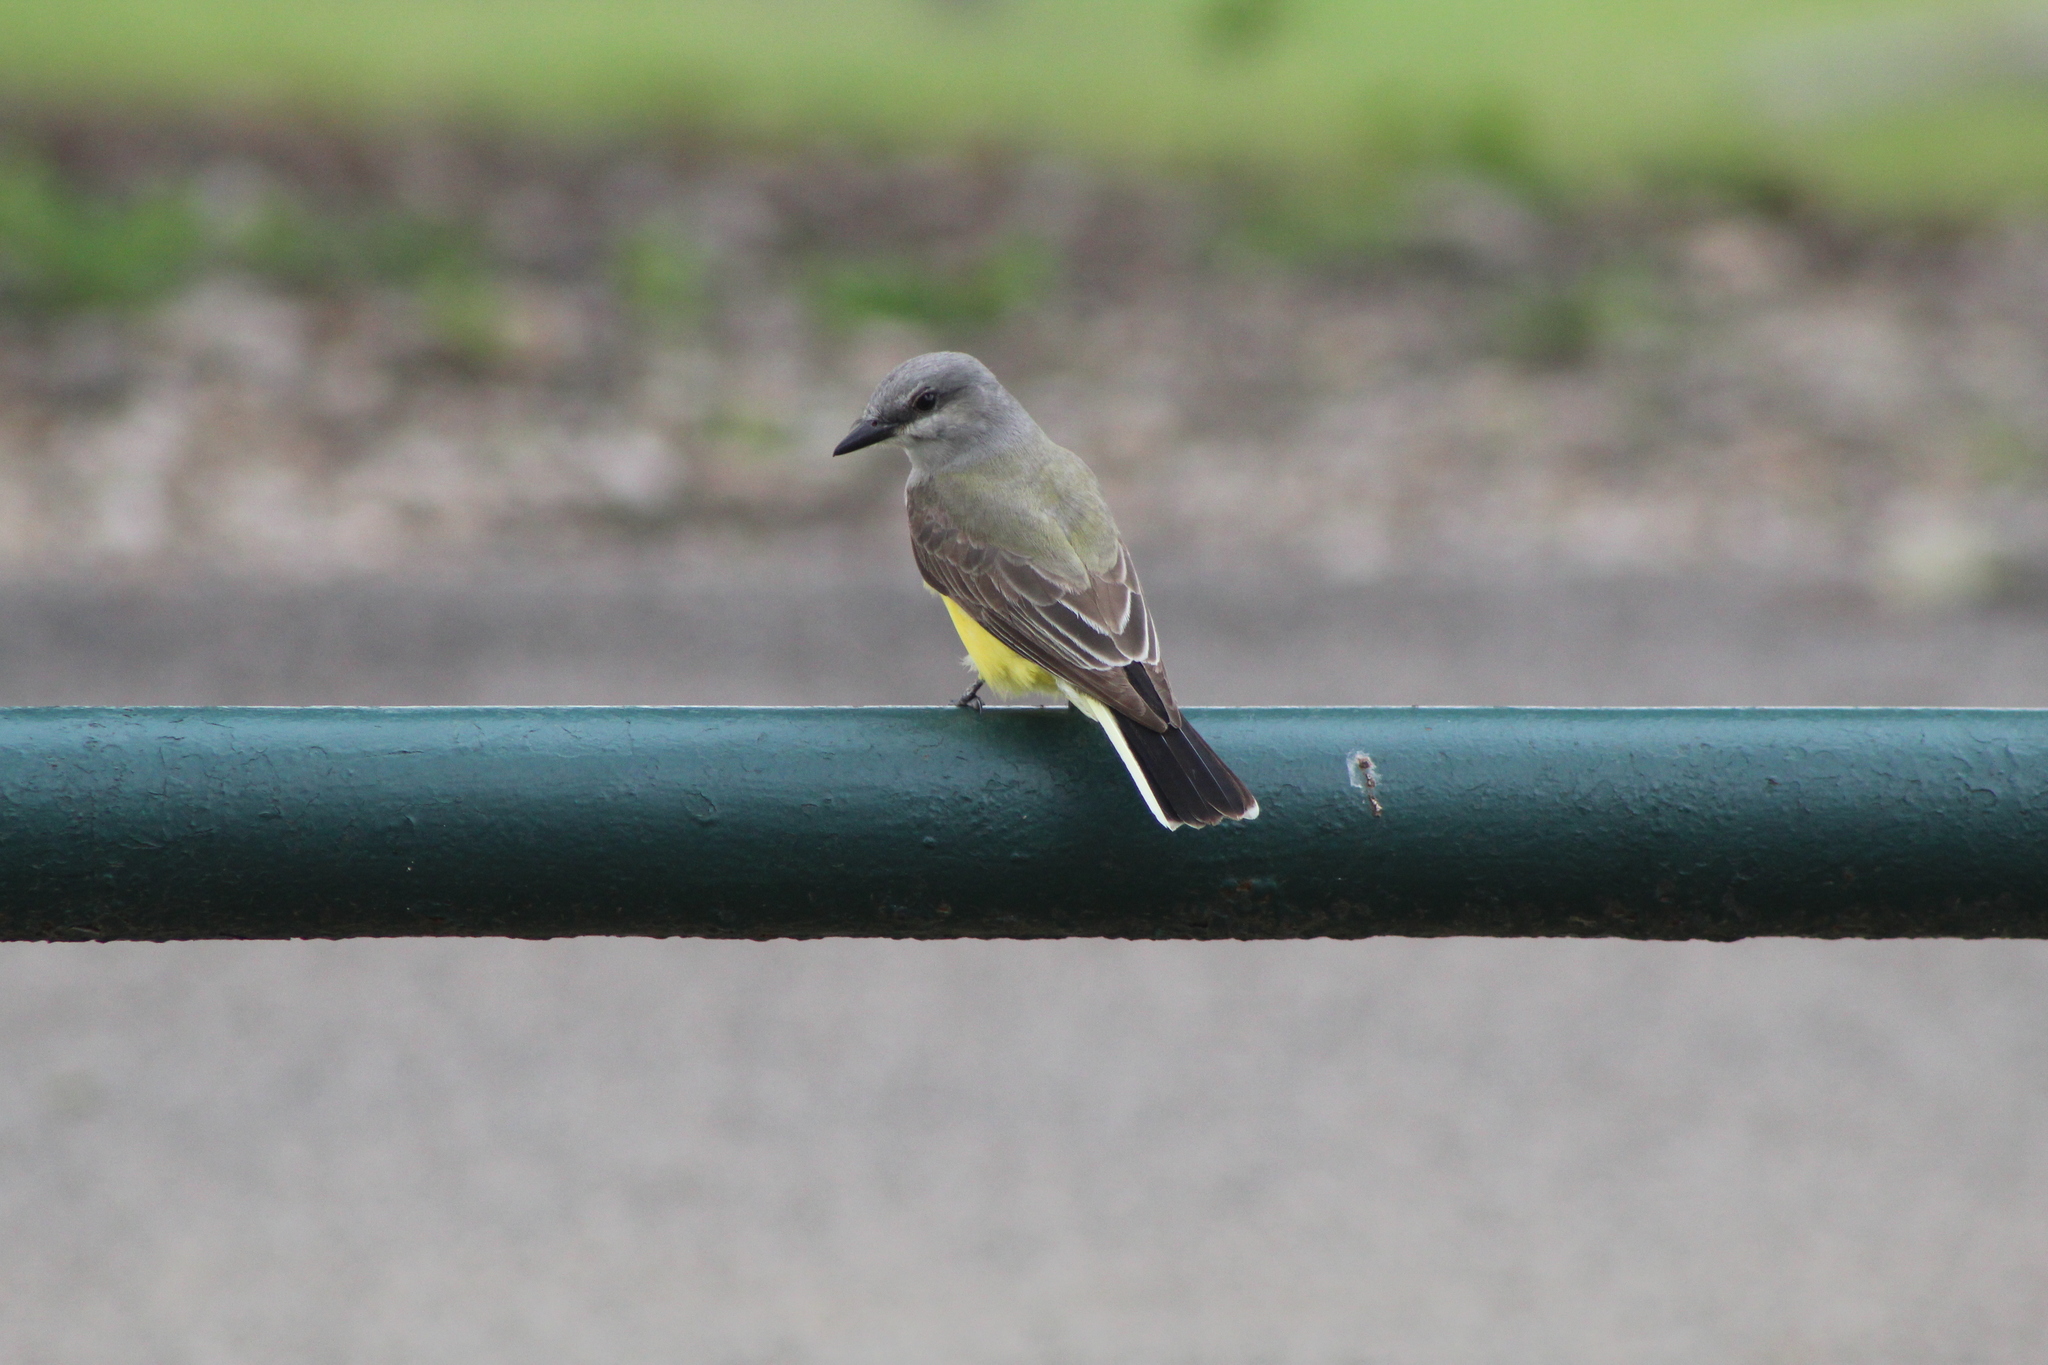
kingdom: Animalia
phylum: Chordata
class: Aves
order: Passeriformes
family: Tyrannidae
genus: Tyrannus
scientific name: Tyrannus verticalis
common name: Western kingbird
